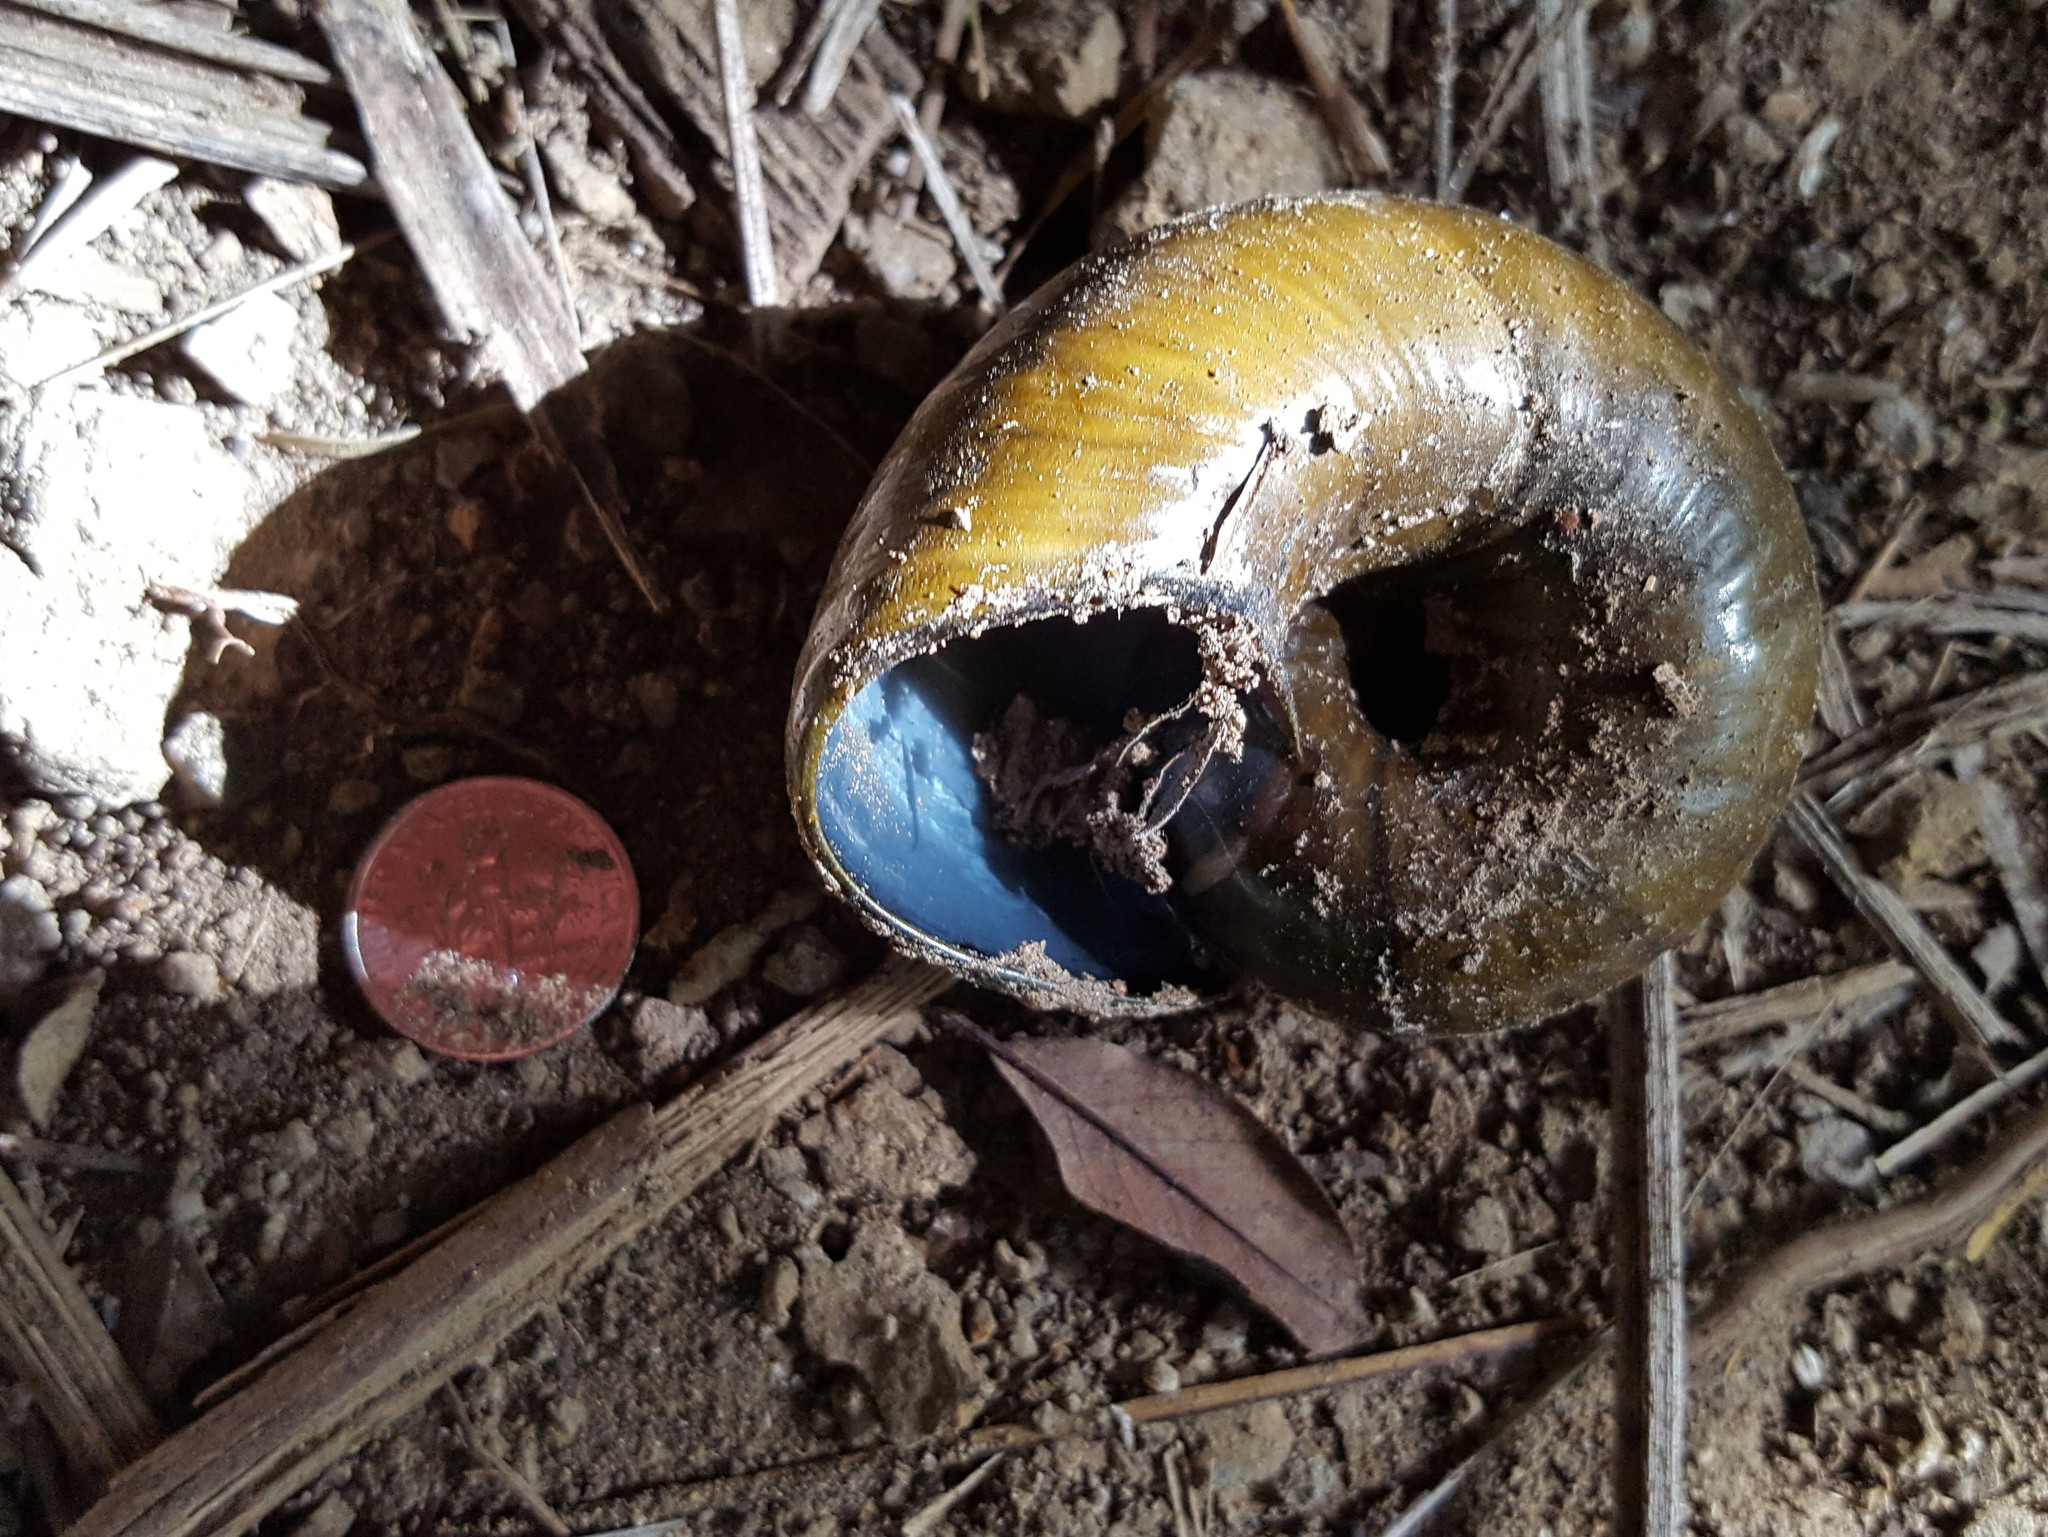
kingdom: Animalia
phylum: Mollusca
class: Gastropoda
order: Stylommatophora
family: Rhytididae
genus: Paryphanta
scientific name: Paryphanta busbyi
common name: Kauri snail
